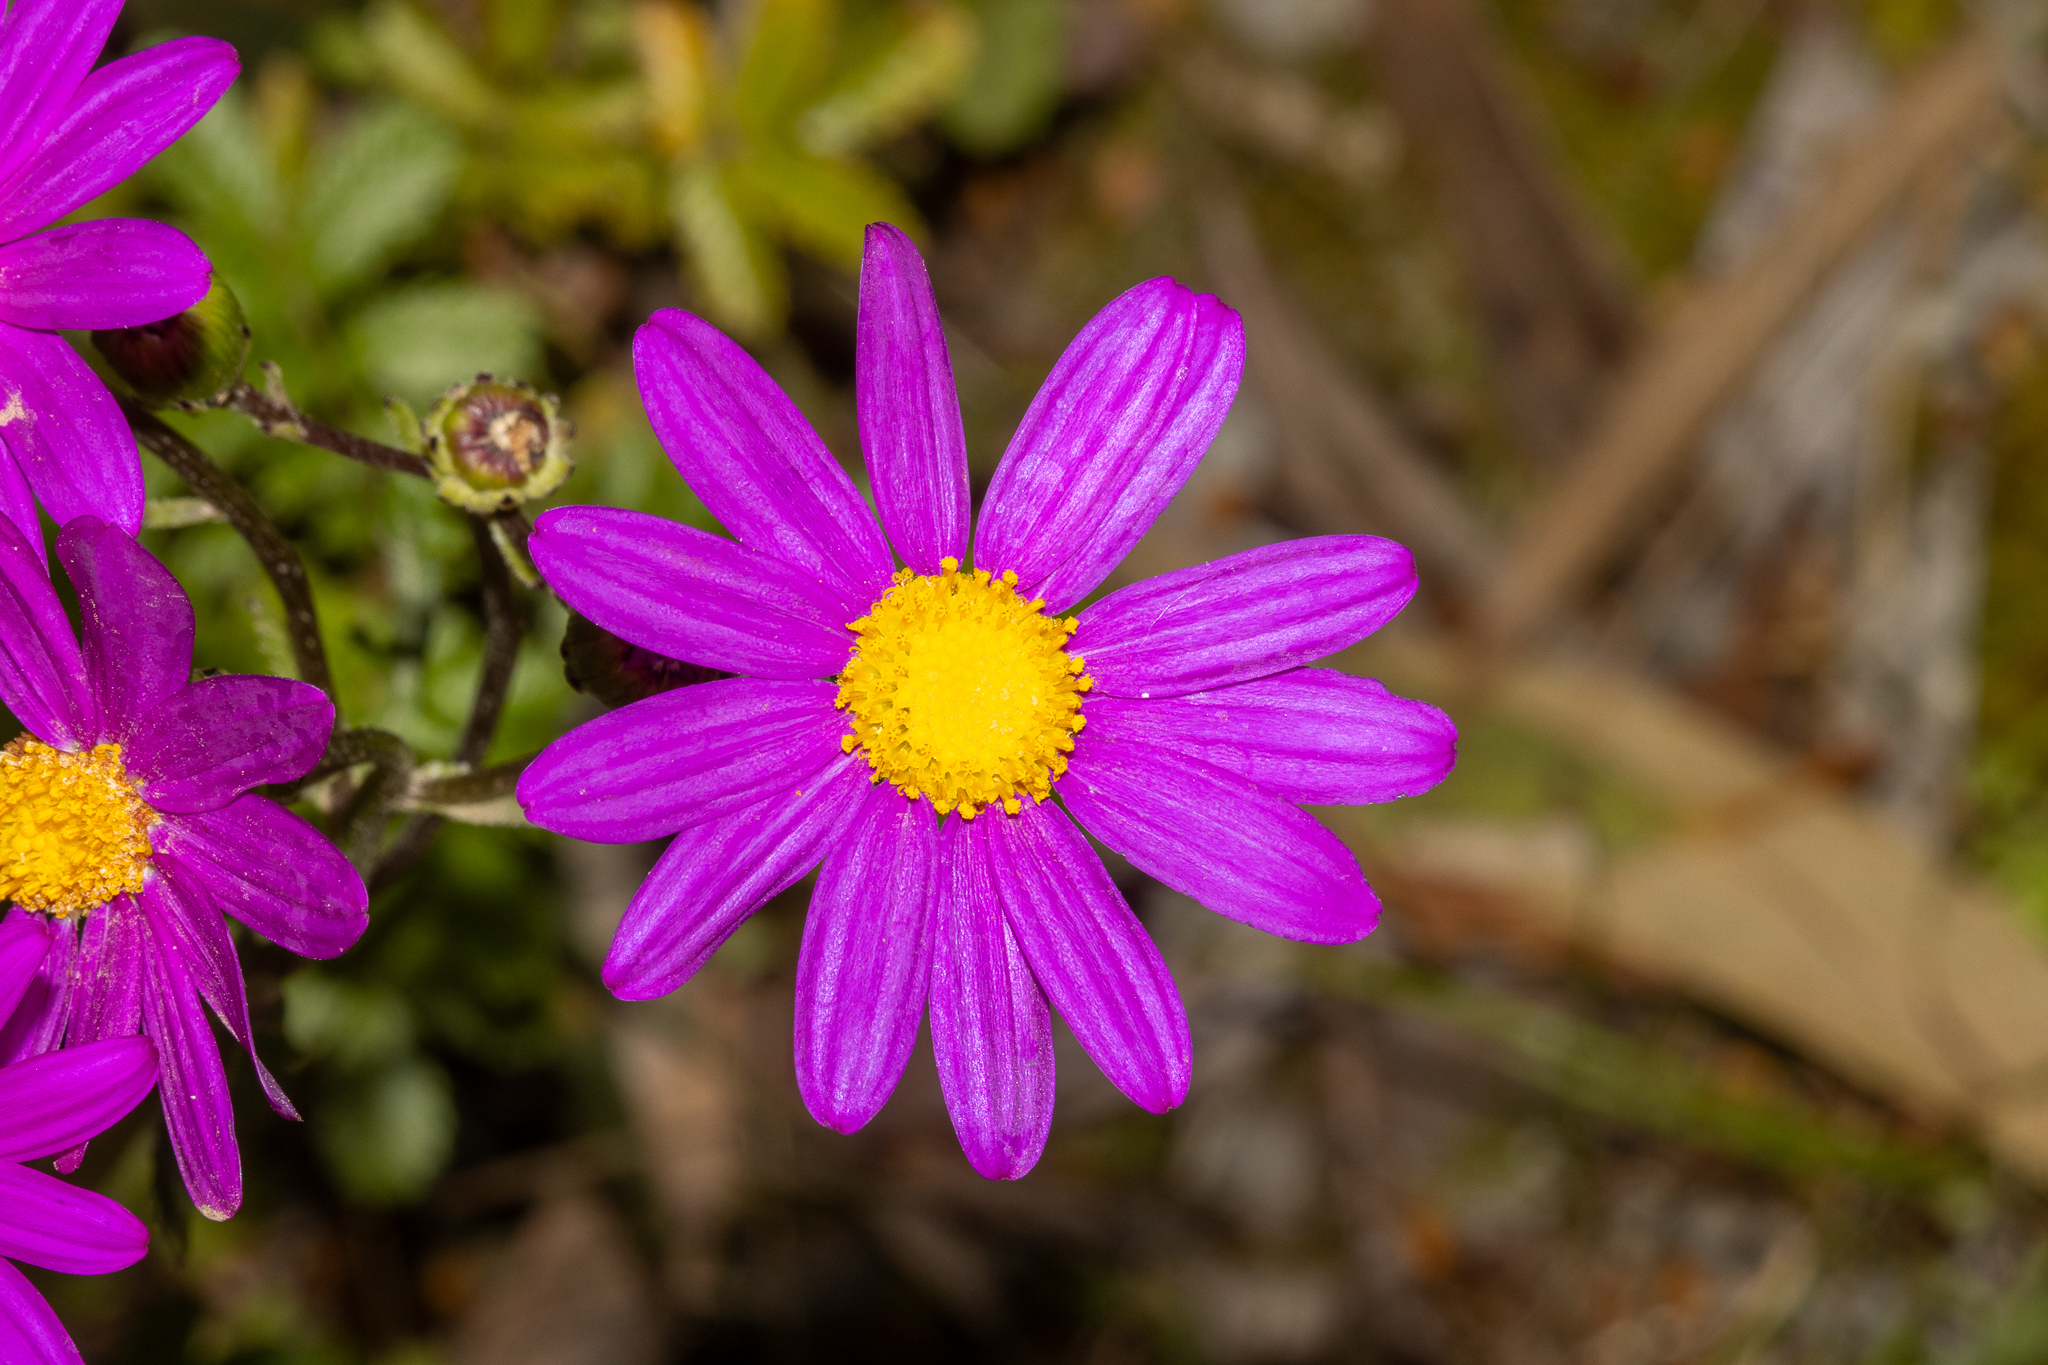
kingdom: Plantae
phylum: Tracheophyta
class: Magnoliopsida
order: Asterales
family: Asteraceae
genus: Senecio
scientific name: Senecio elegans
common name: Purple groundsel
